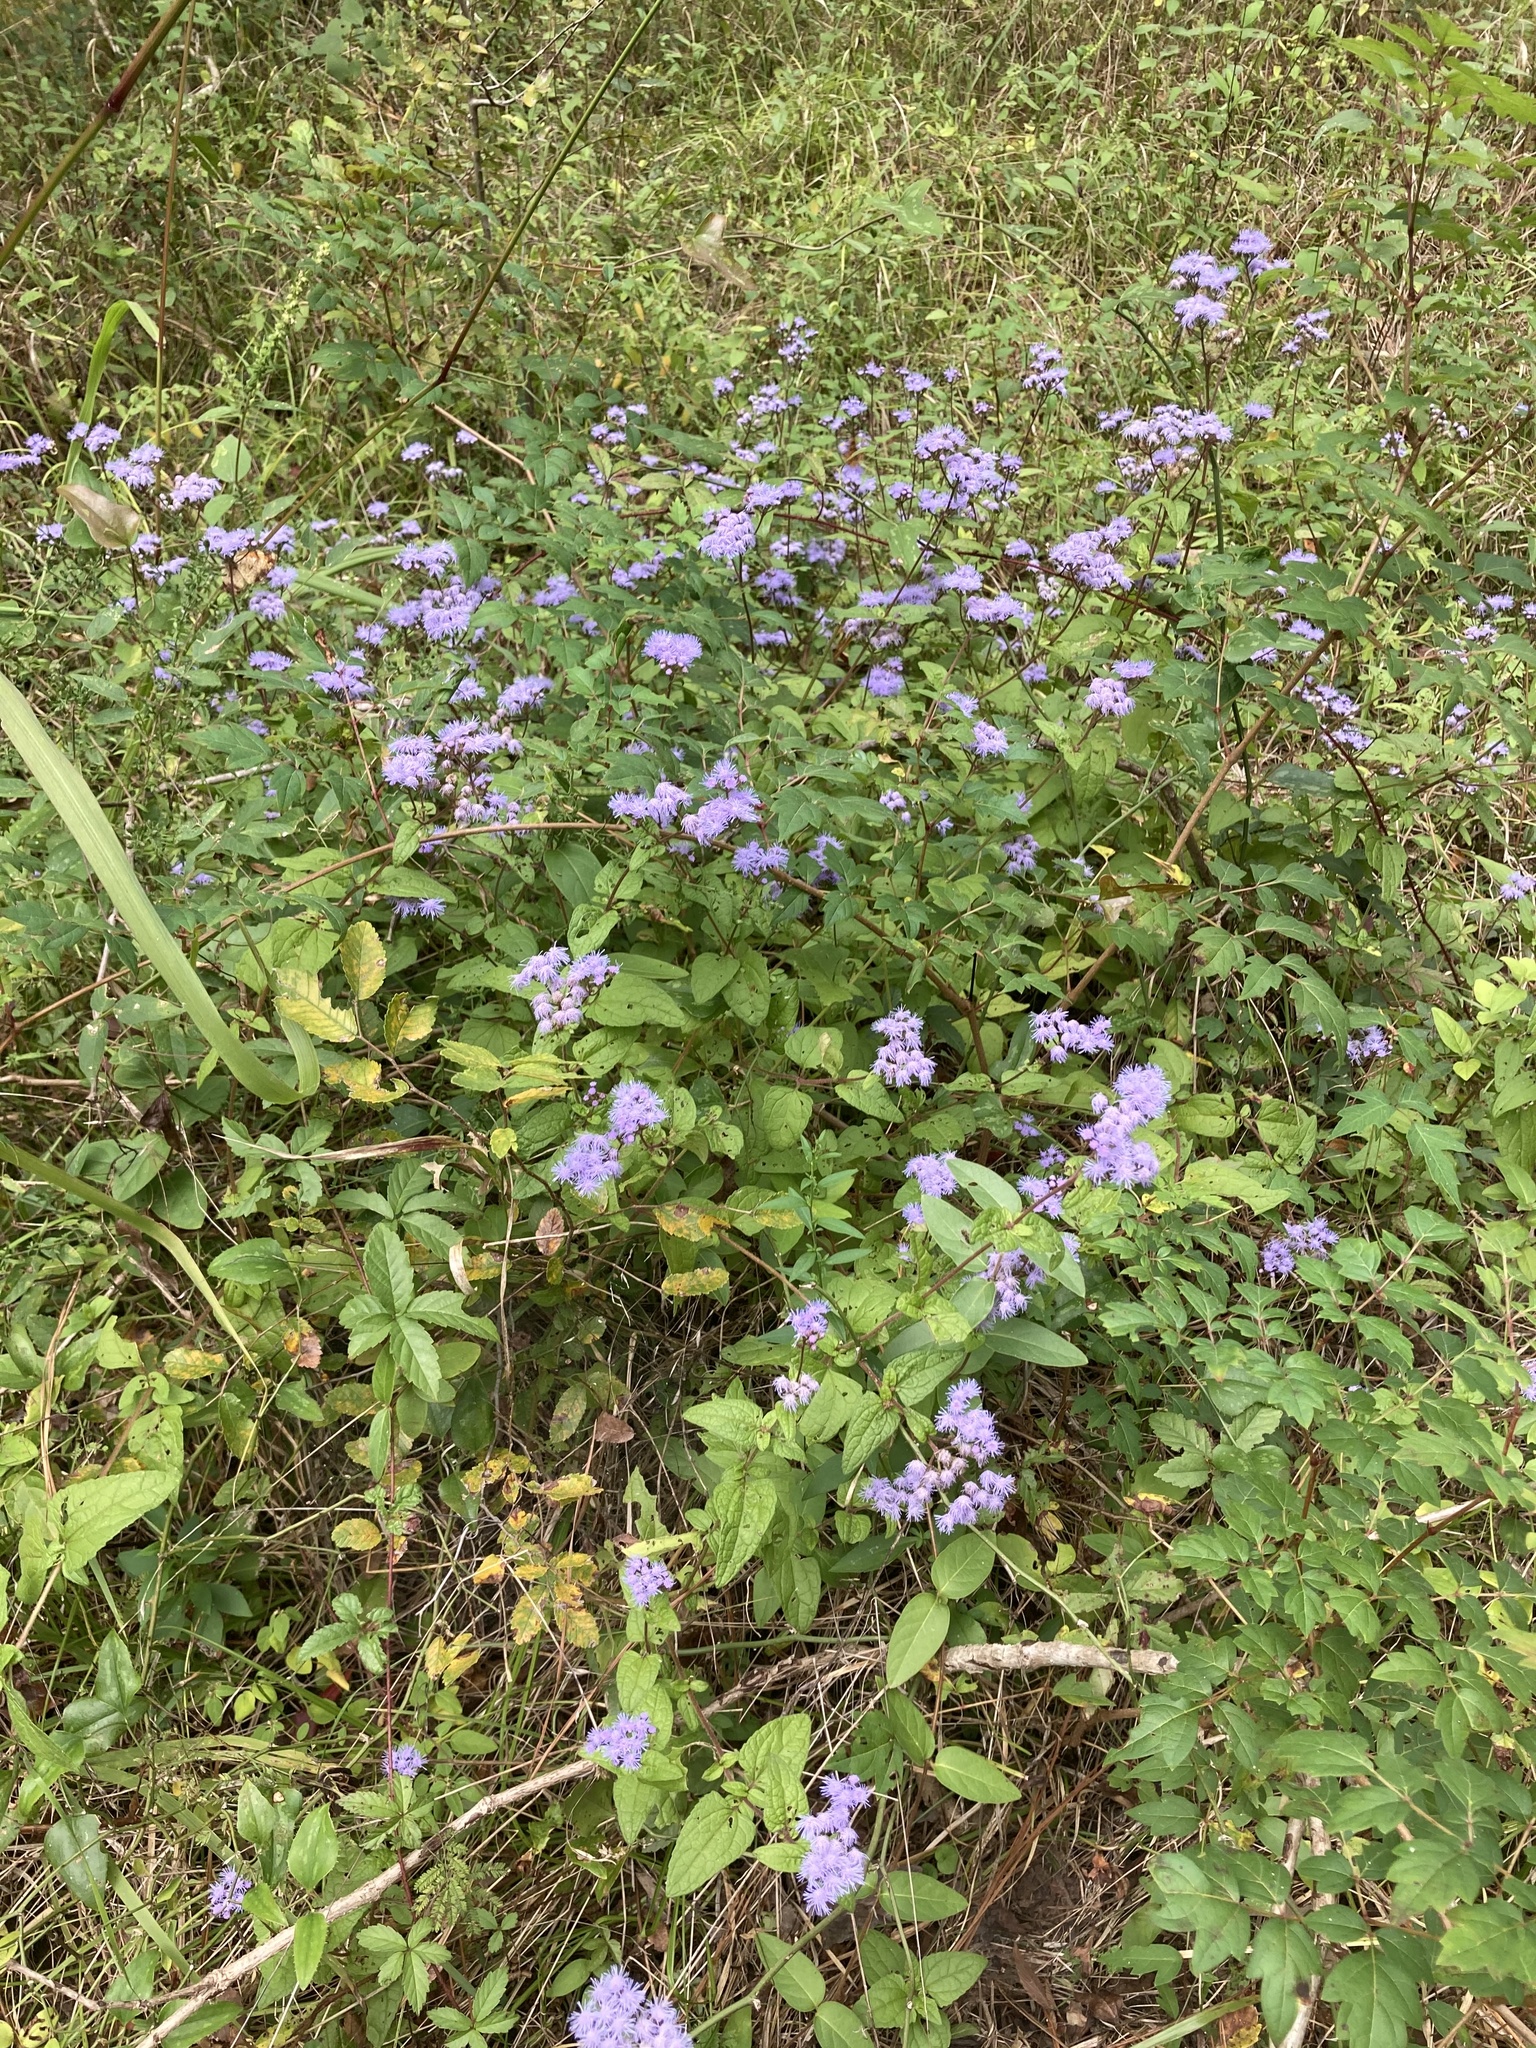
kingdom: Plantae
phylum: Tracheophyta
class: Magnoliopsida
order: Asterales
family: Asteraceae
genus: Conoclinium
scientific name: Conoclinium coelestinum
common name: Blue mistflower
